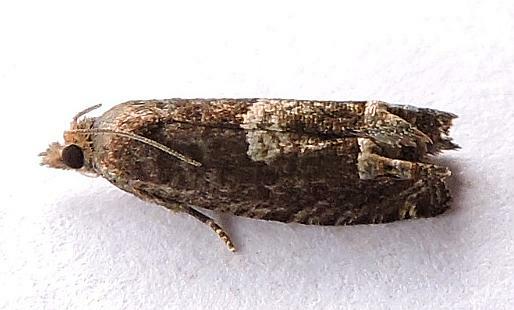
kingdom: Animalia
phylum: Arthropoda
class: Insecta
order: Lepidoptera
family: Tortricidae
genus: Eucosma
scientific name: Eucosma parmatana
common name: Aster eucosma moth
